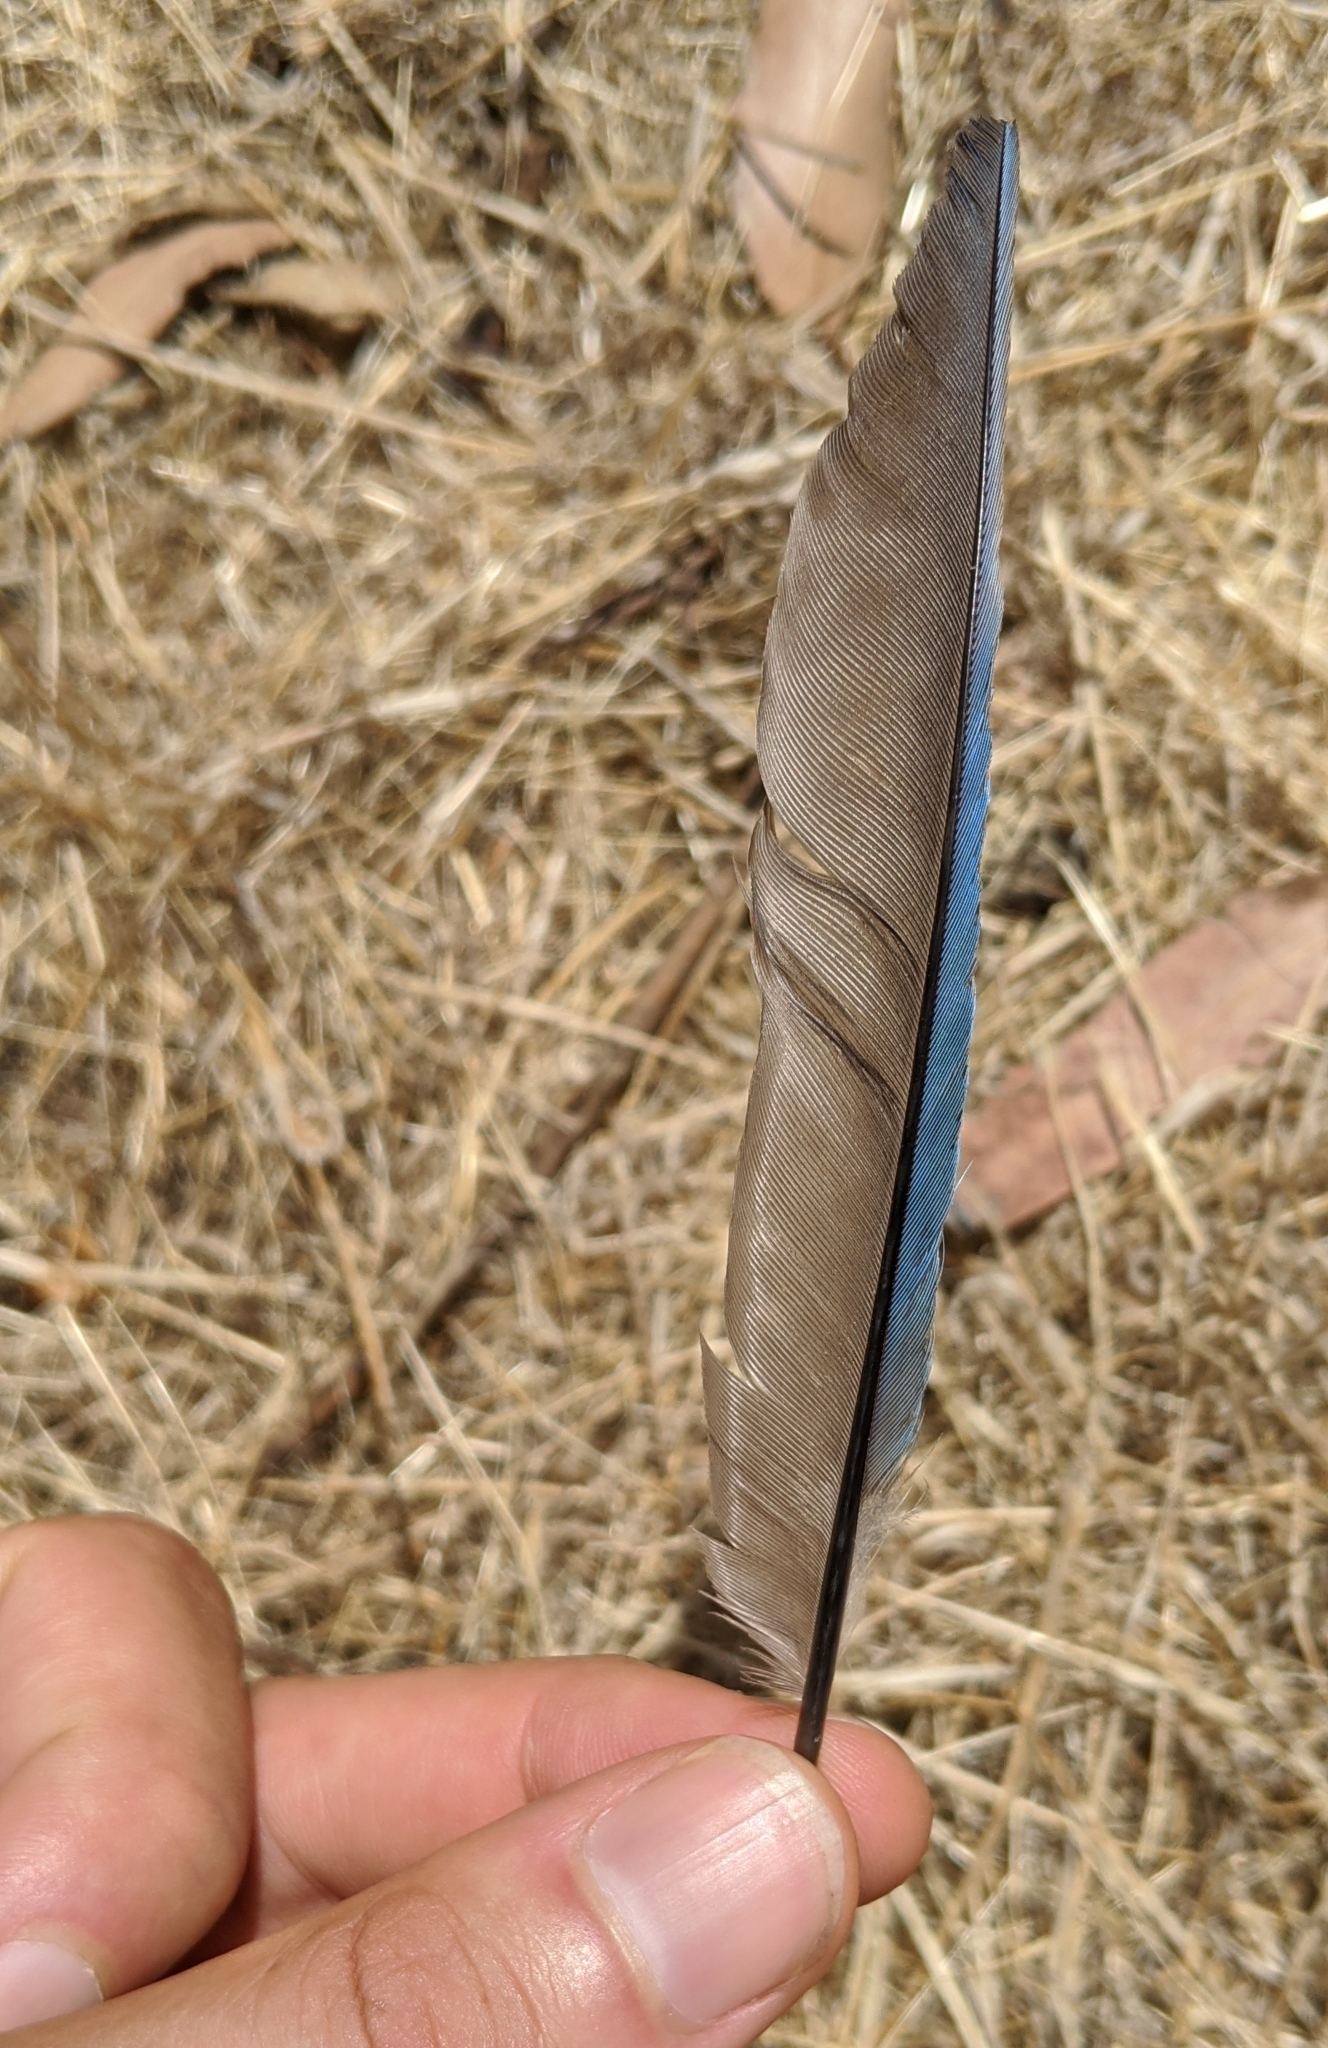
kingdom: Animalia
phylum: Chordata
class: Aves
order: Passeriformes
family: Corvidae
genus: Aphelocoma
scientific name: Aphelocoma californica
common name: California scrub-jay
